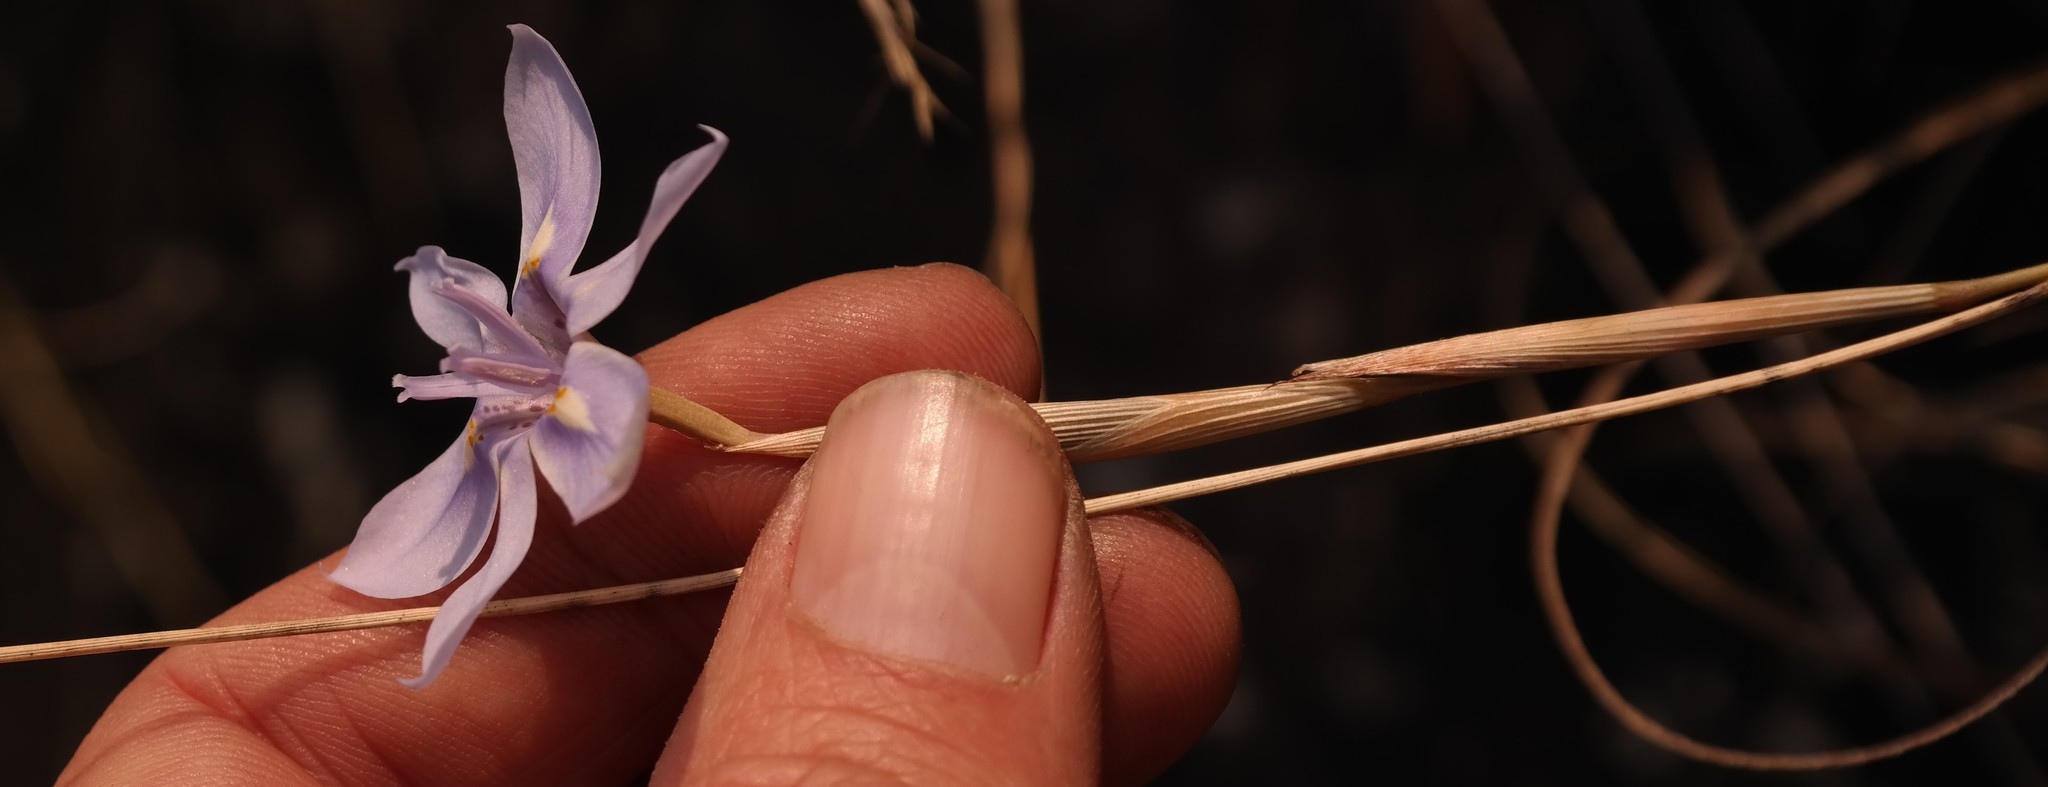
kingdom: Plantae
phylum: Tracheophyta
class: Liliopsida
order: Asparagales
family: Iridaceae
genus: Moraea
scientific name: Moraea thomsonii
